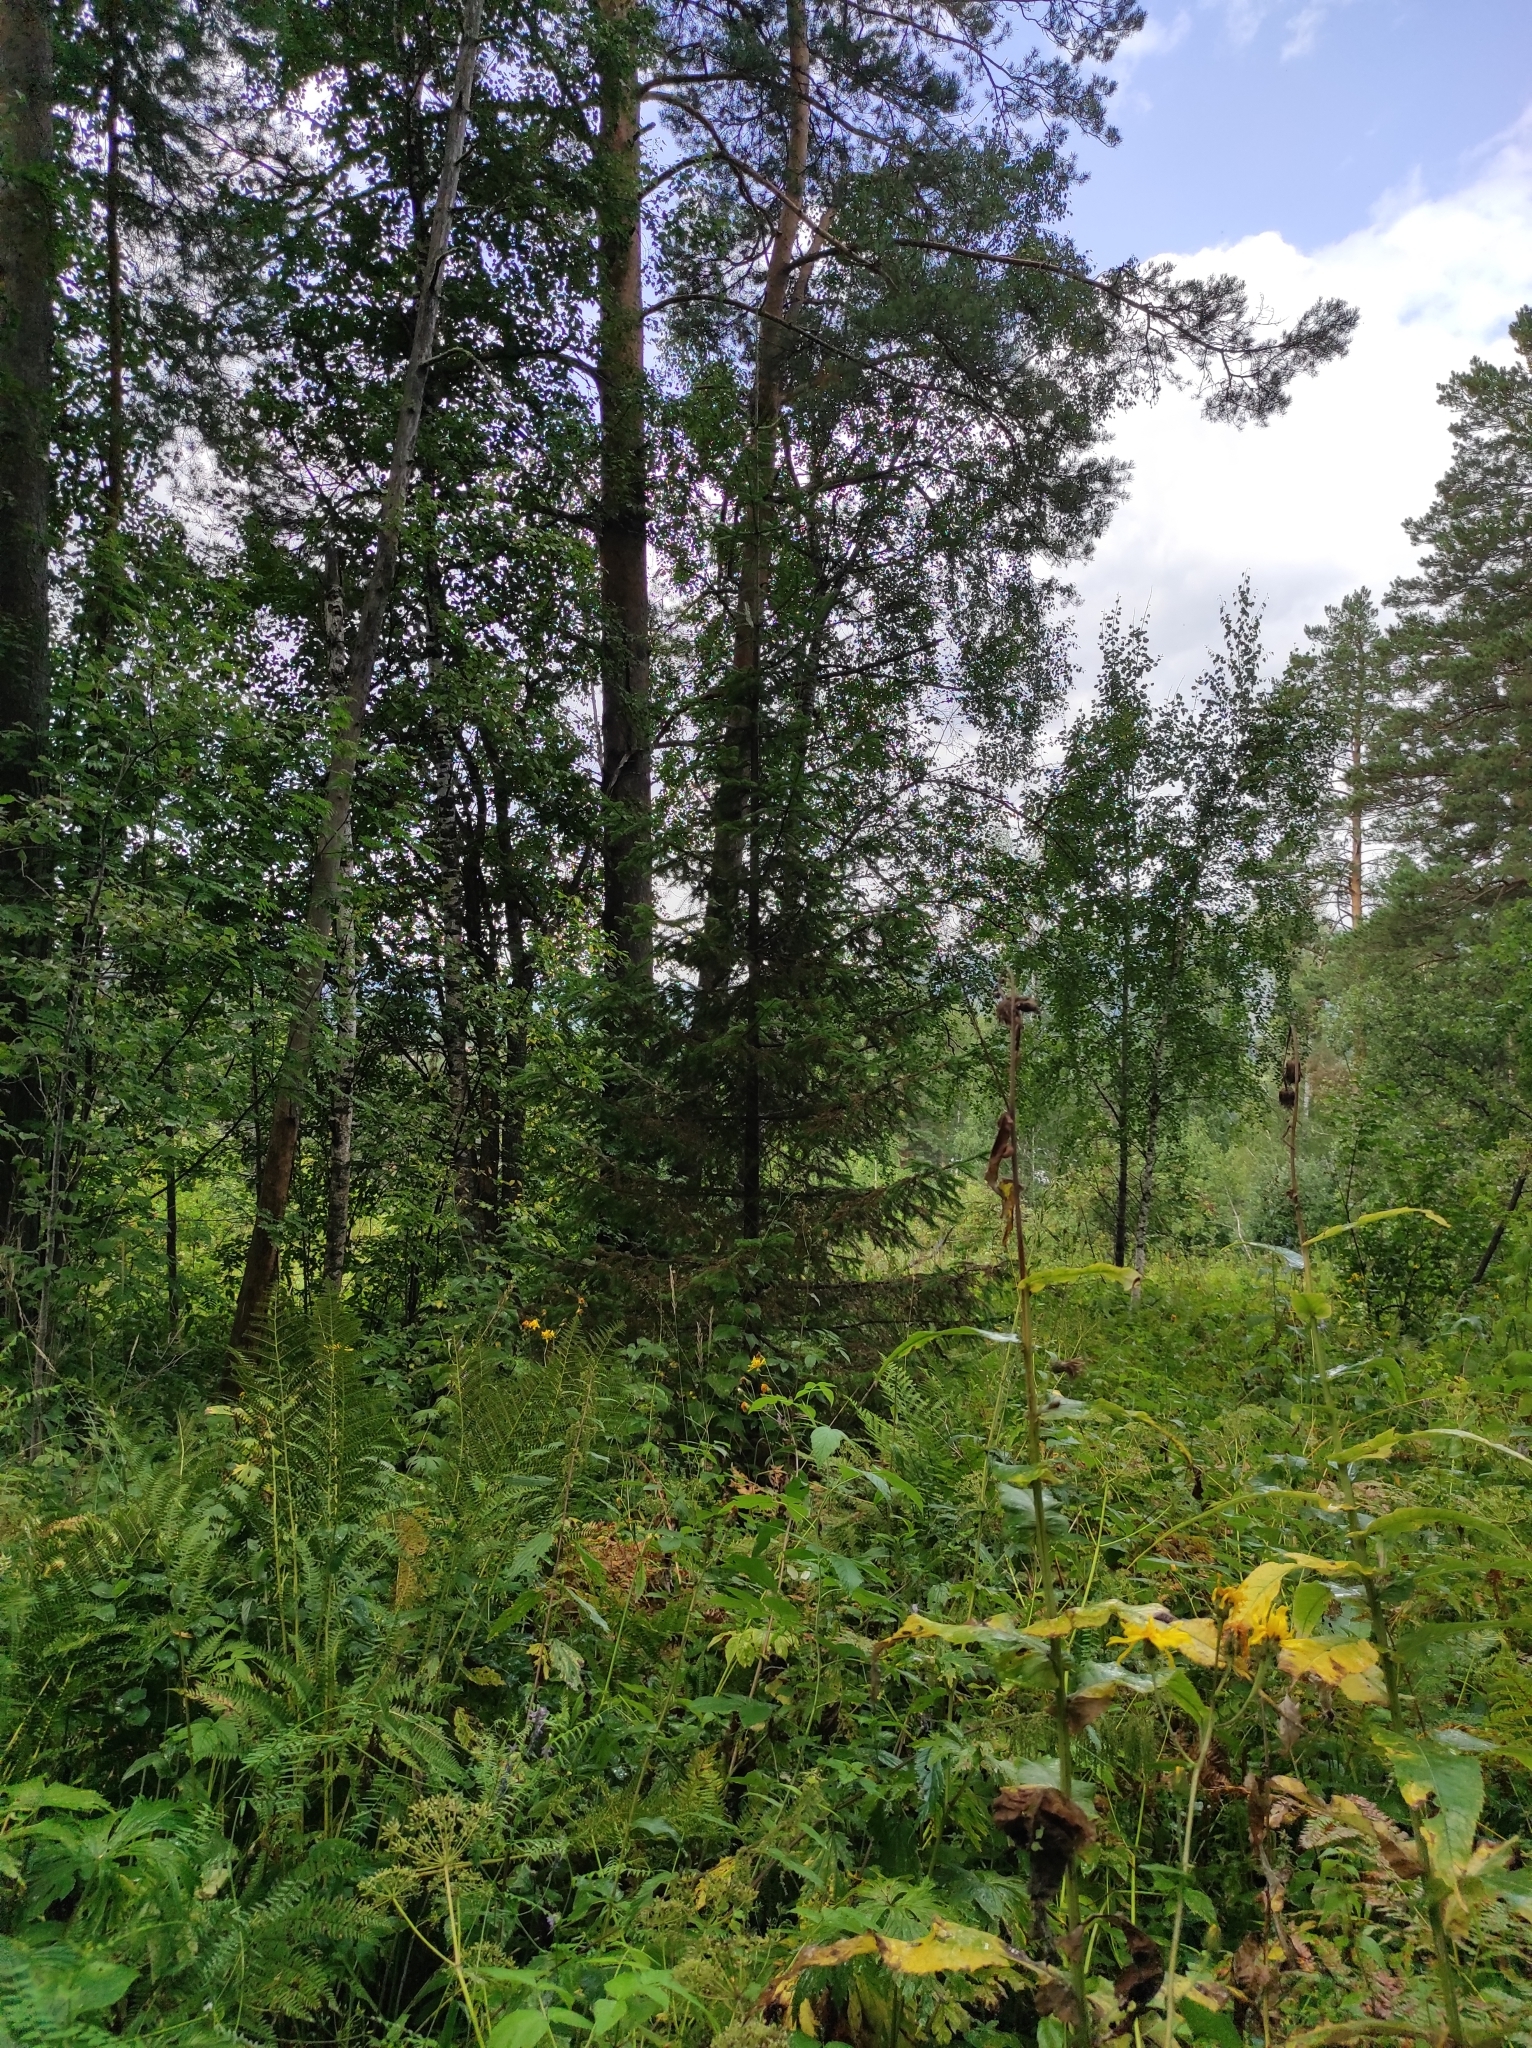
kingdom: Plantae
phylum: Tracheophyta
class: Pinopsida
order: Pinales
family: Pinaceae
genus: Pinus
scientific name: Pinus sylvestris
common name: Scots pine
